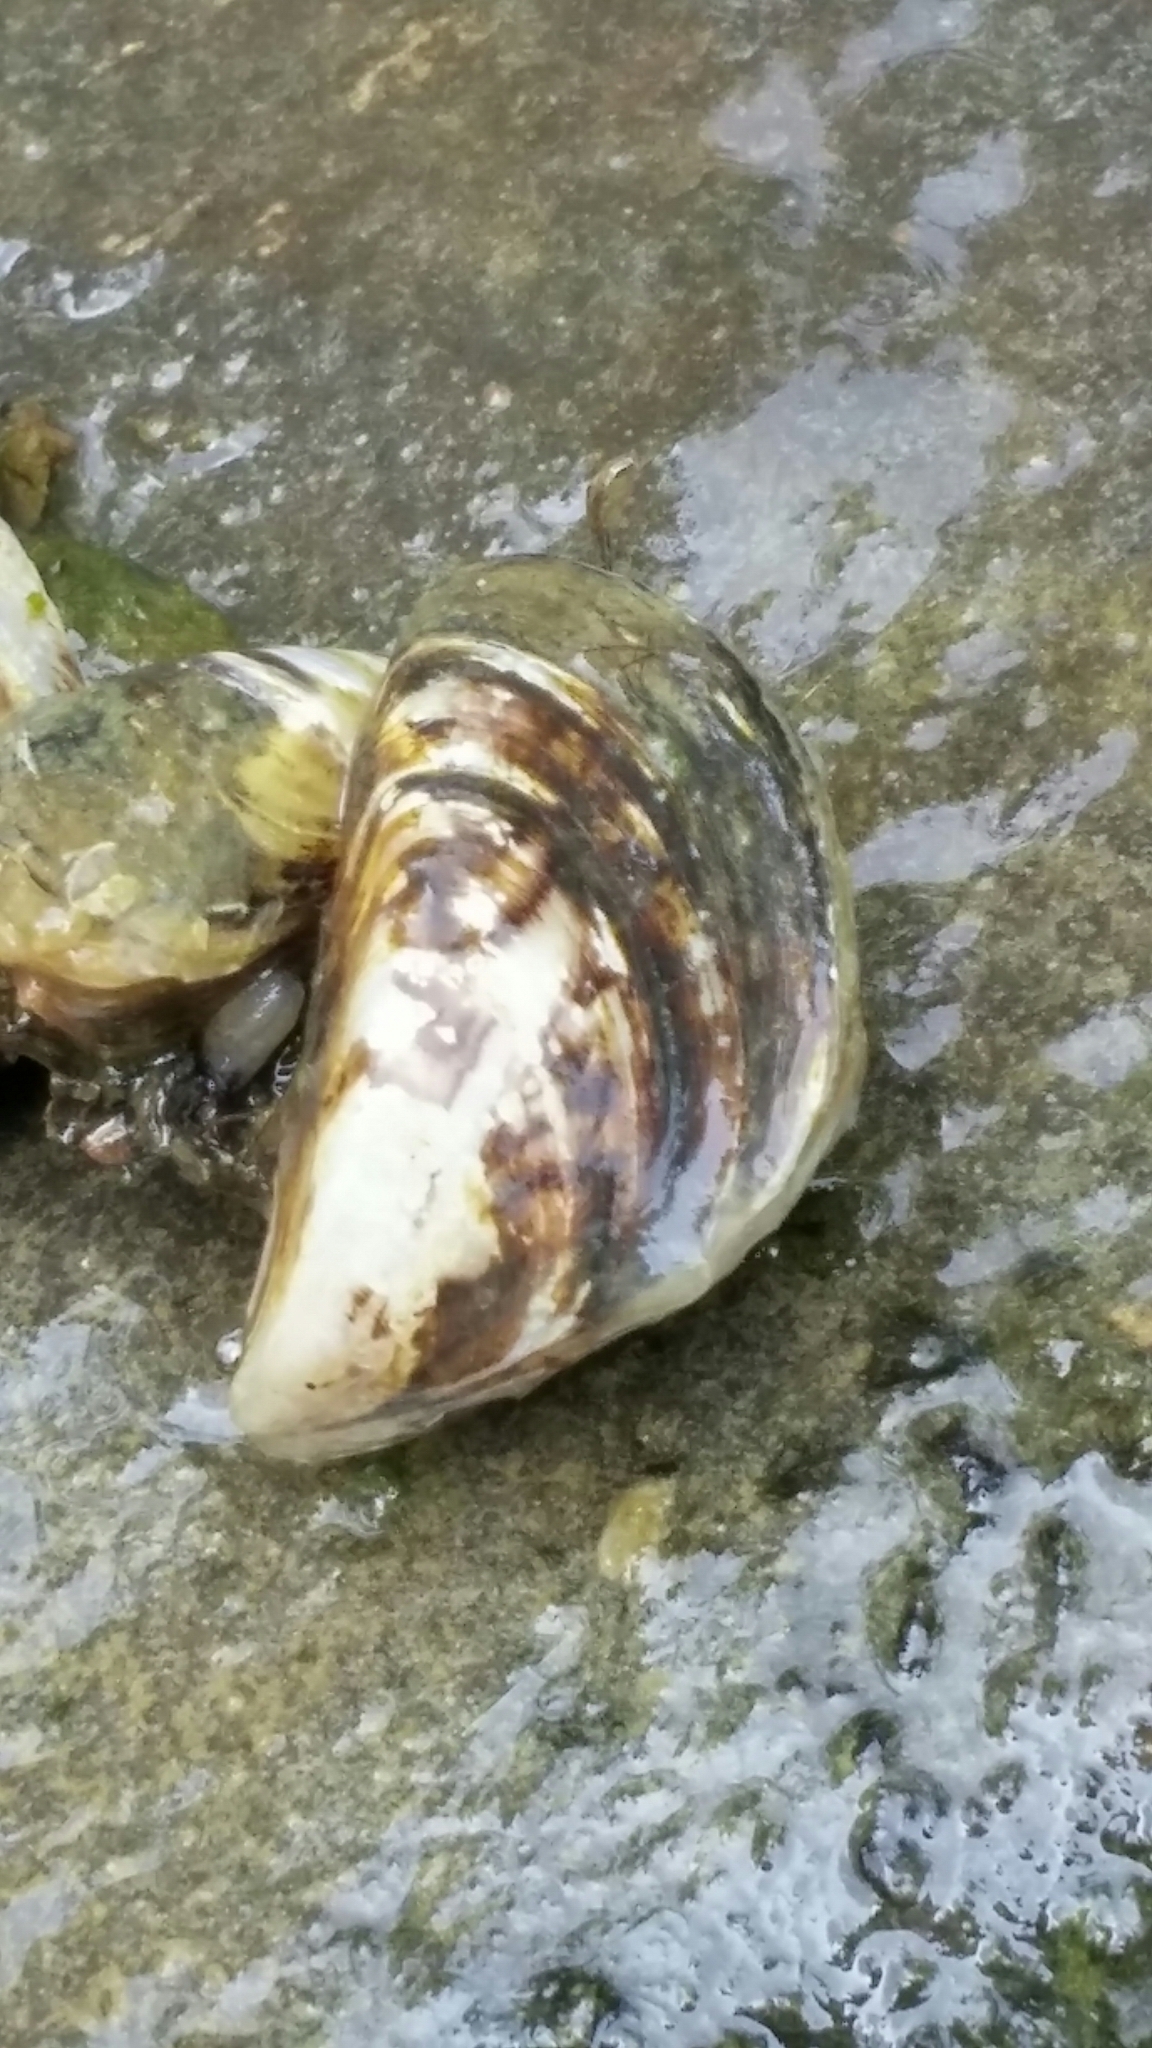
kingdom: Animalia
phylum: Mollusca
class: Bivalvia
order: Myida
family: Dreissenidae
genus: Dreissena
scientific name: Dreissena polymorpha
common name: Zebra mussel
